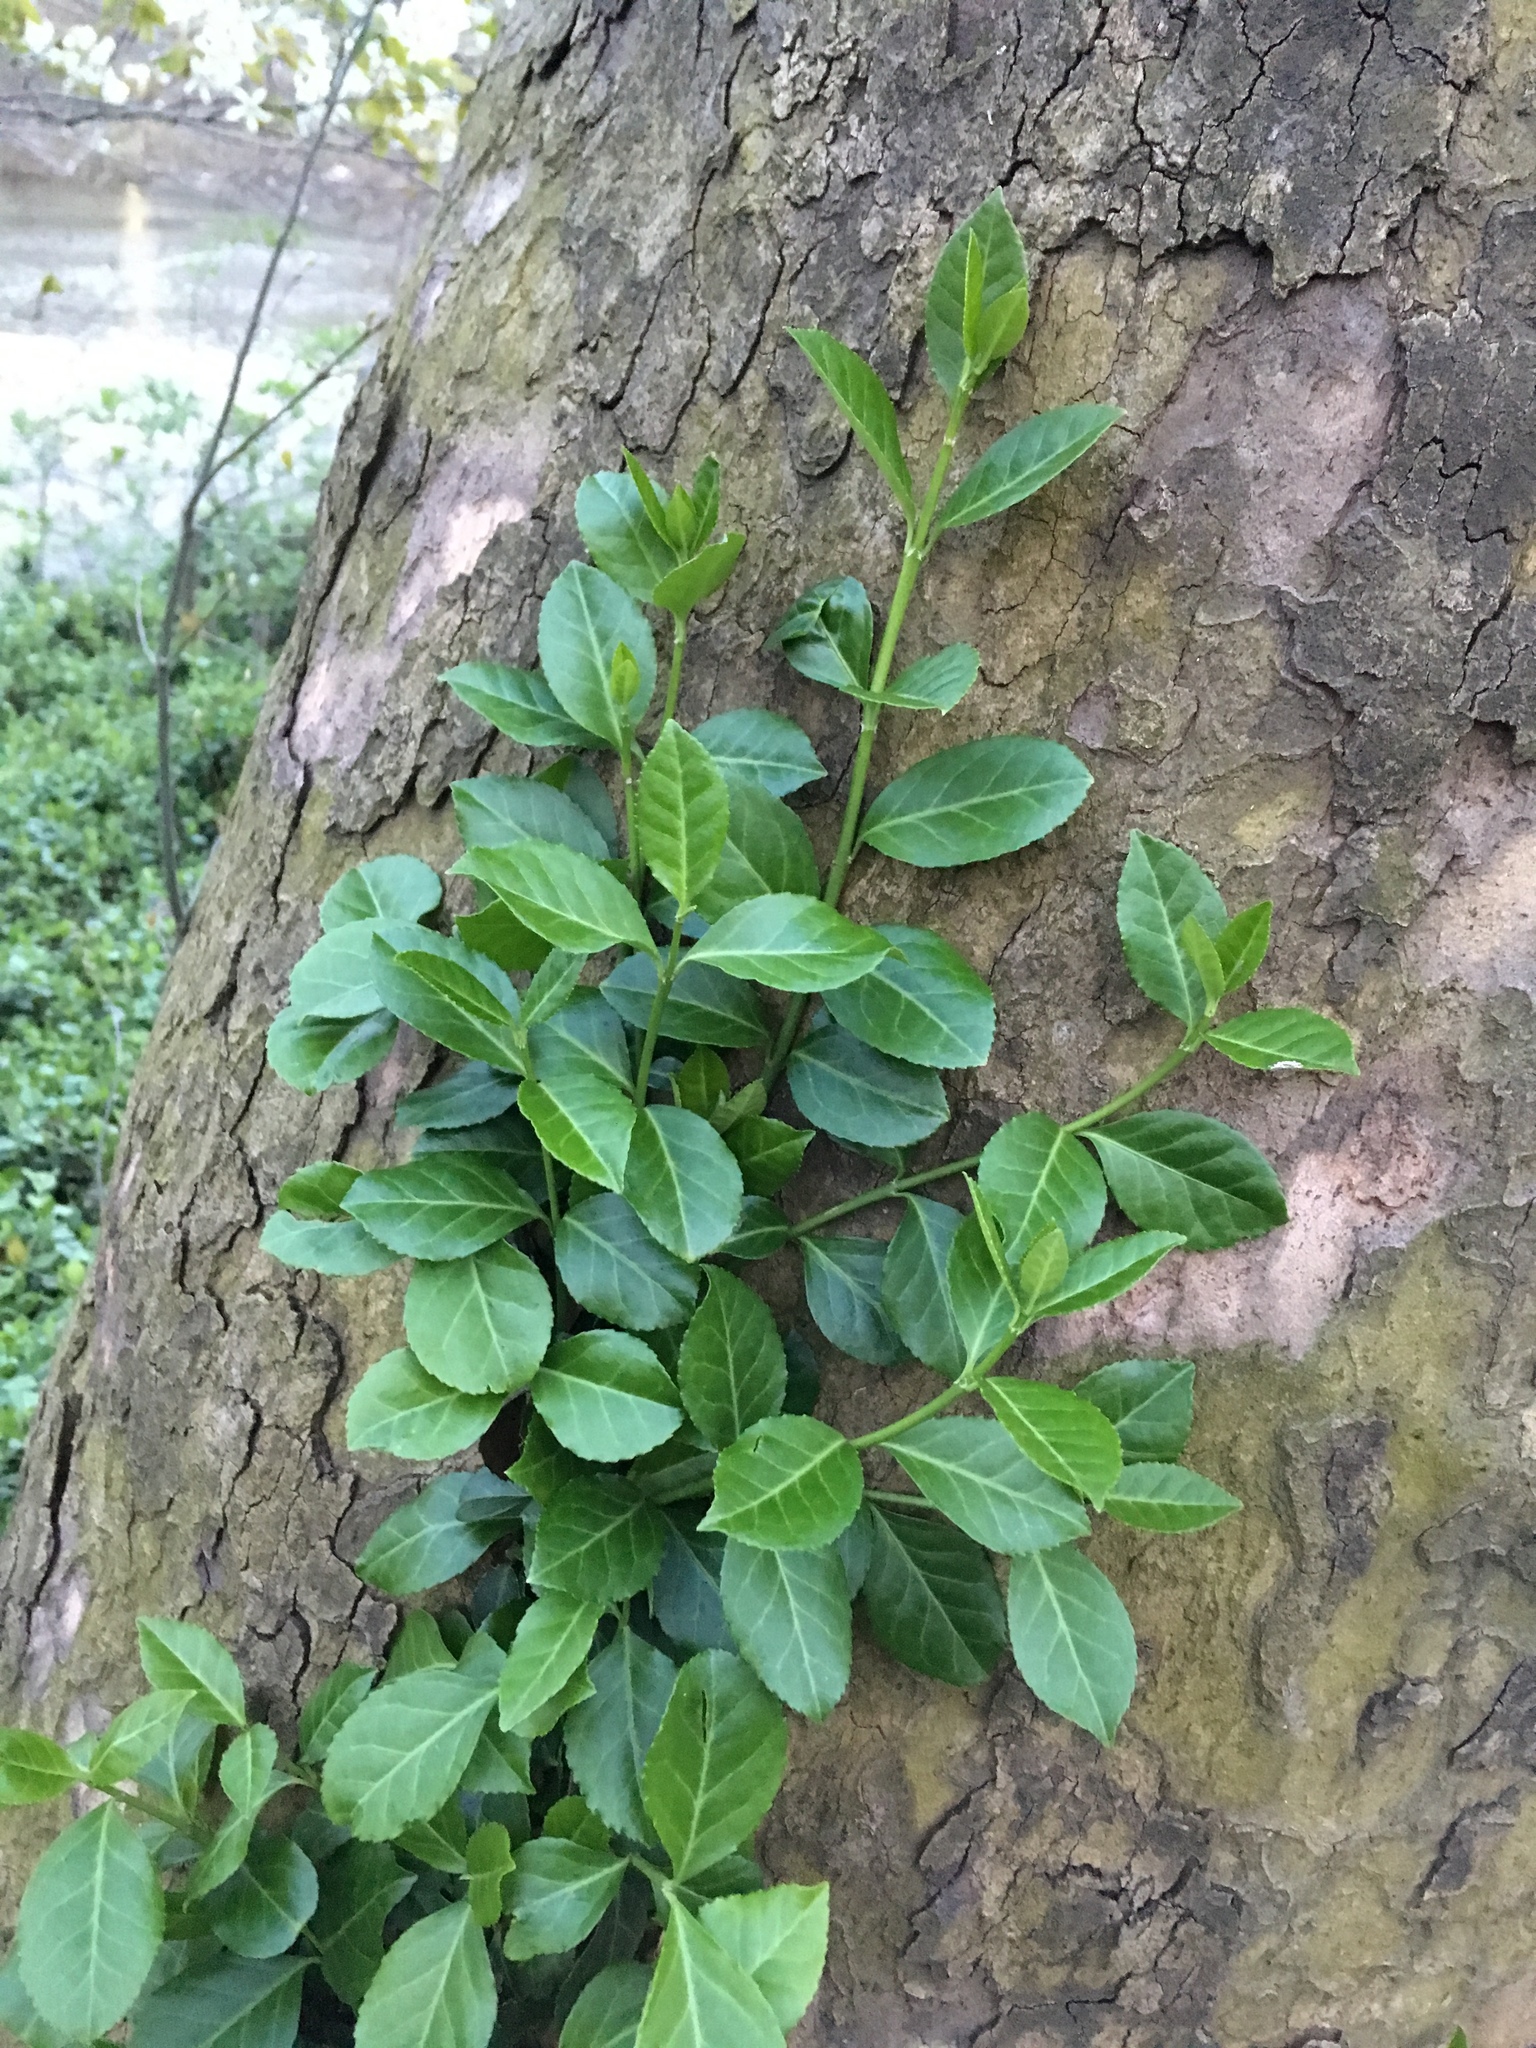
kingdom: Plantae
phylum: Tracheophyta
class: Magnoliopsida
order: Celastrales
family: Celastraceae
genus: Euonymus
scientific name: Euonymus fortunei
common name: Climbing euonymus
